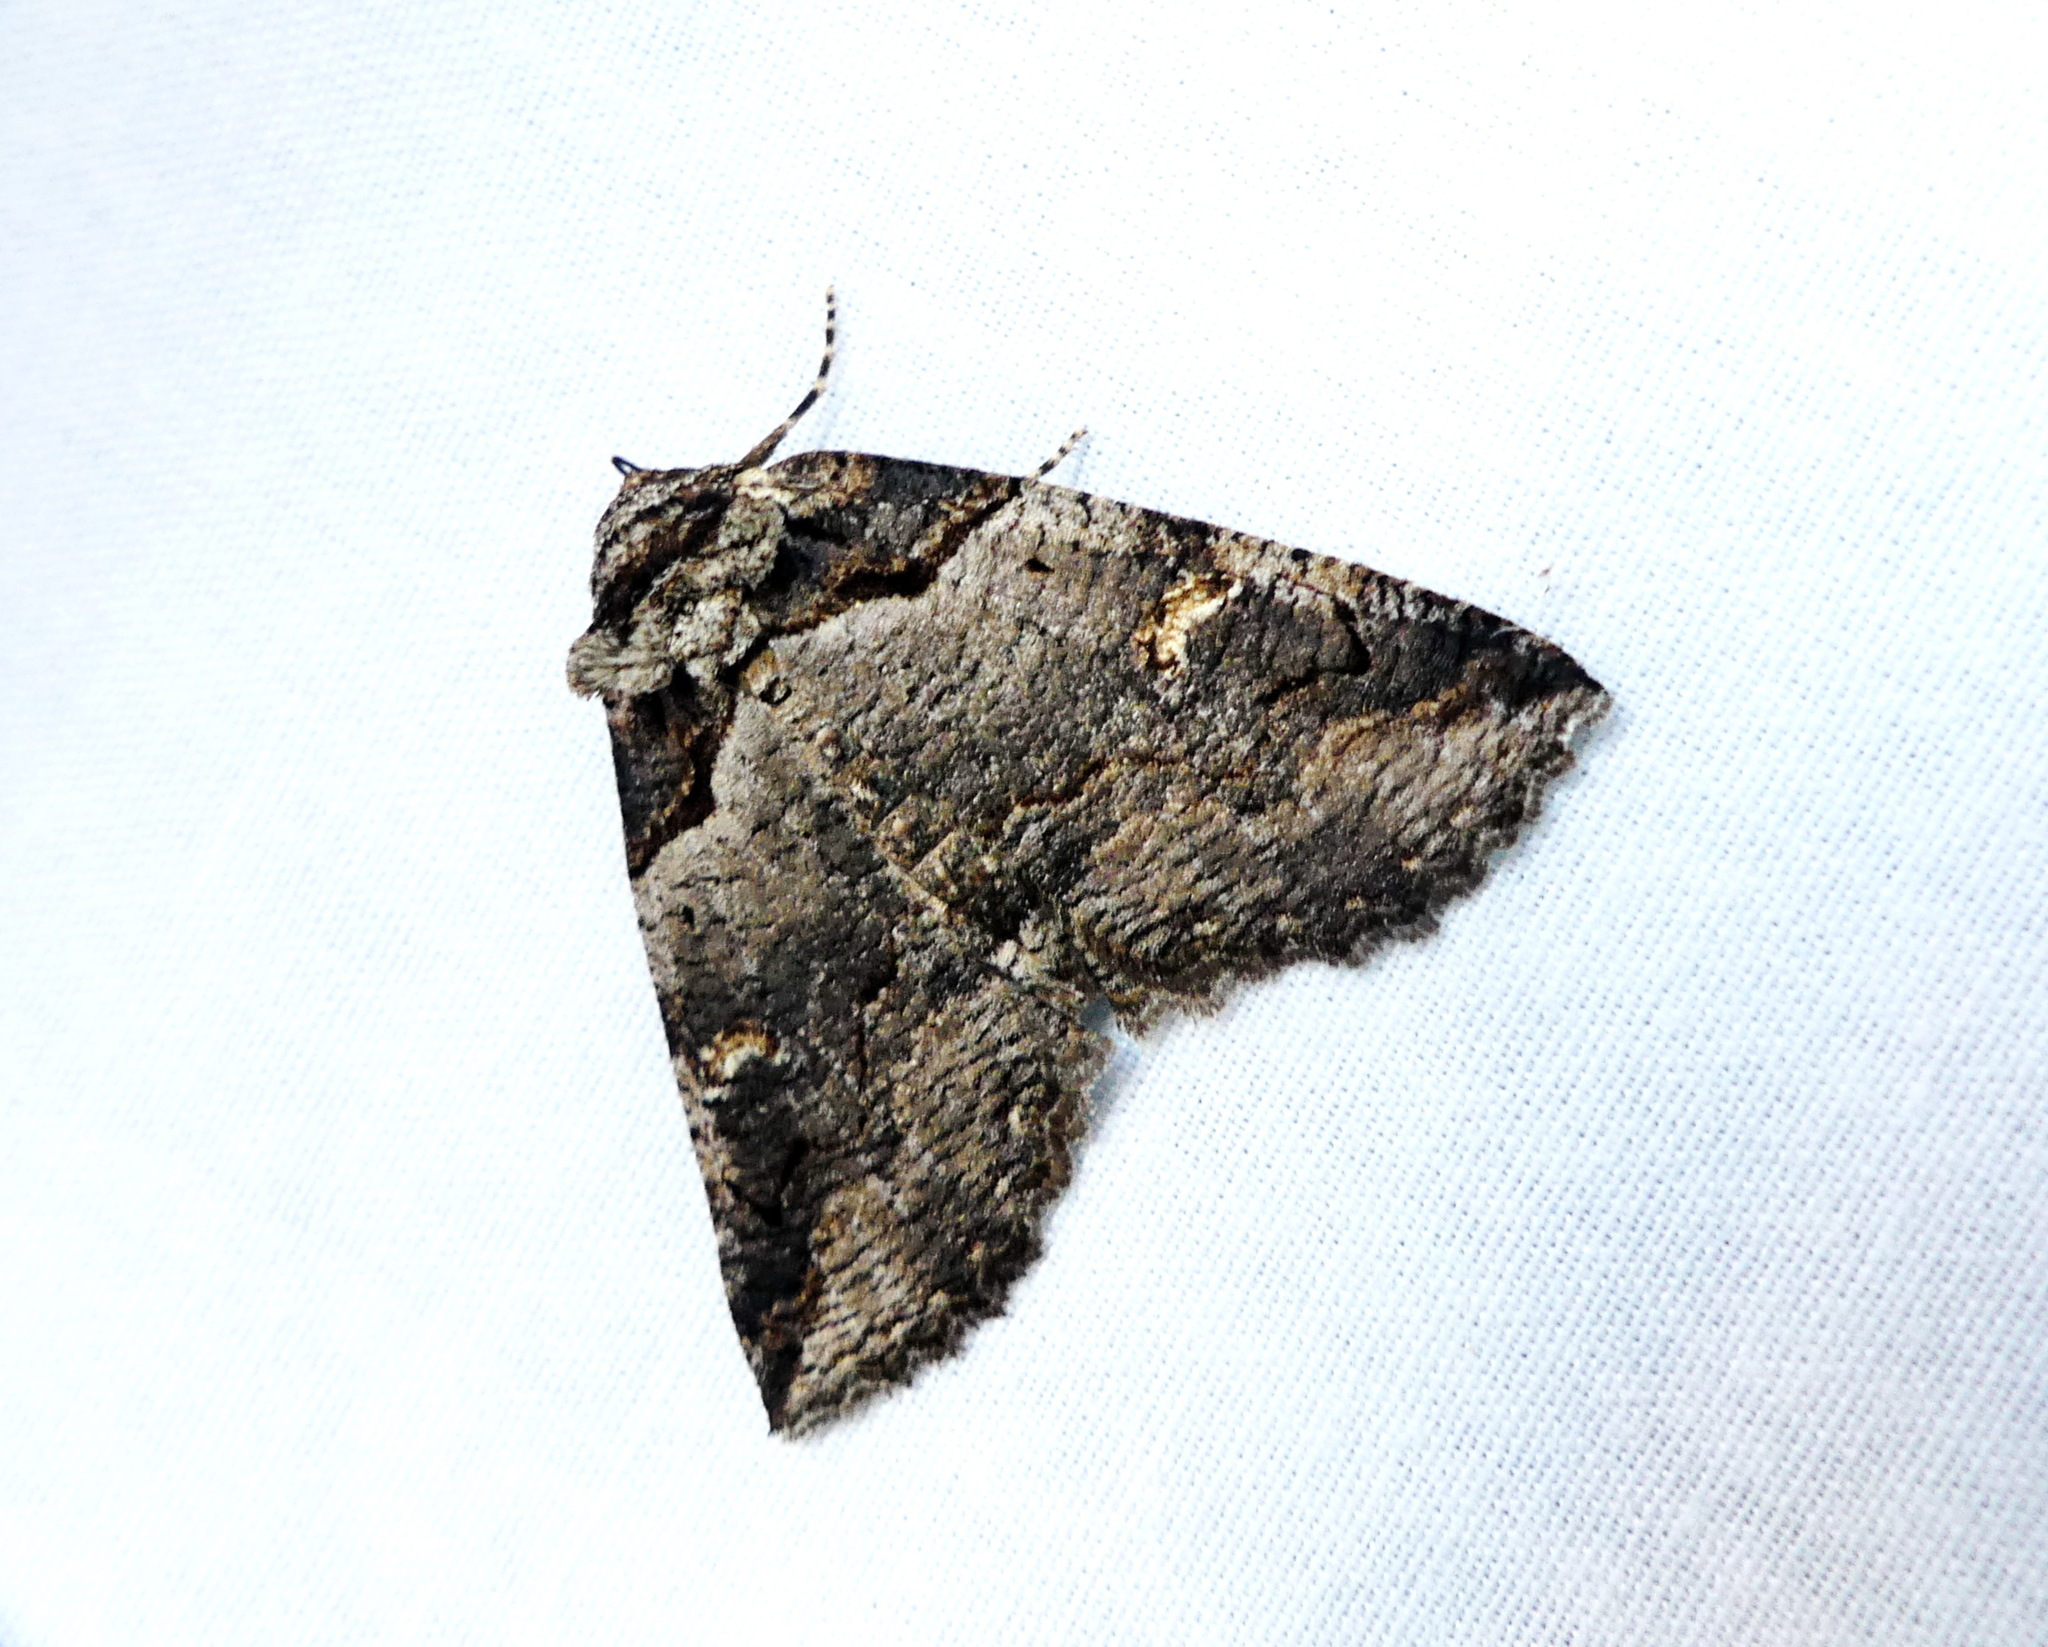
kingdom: Animalia
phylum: Arthropoda
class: Insecta
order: Lepidoptera
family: Erebidae
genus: Zale
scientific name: Zale intenta
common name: Intent zale moth
